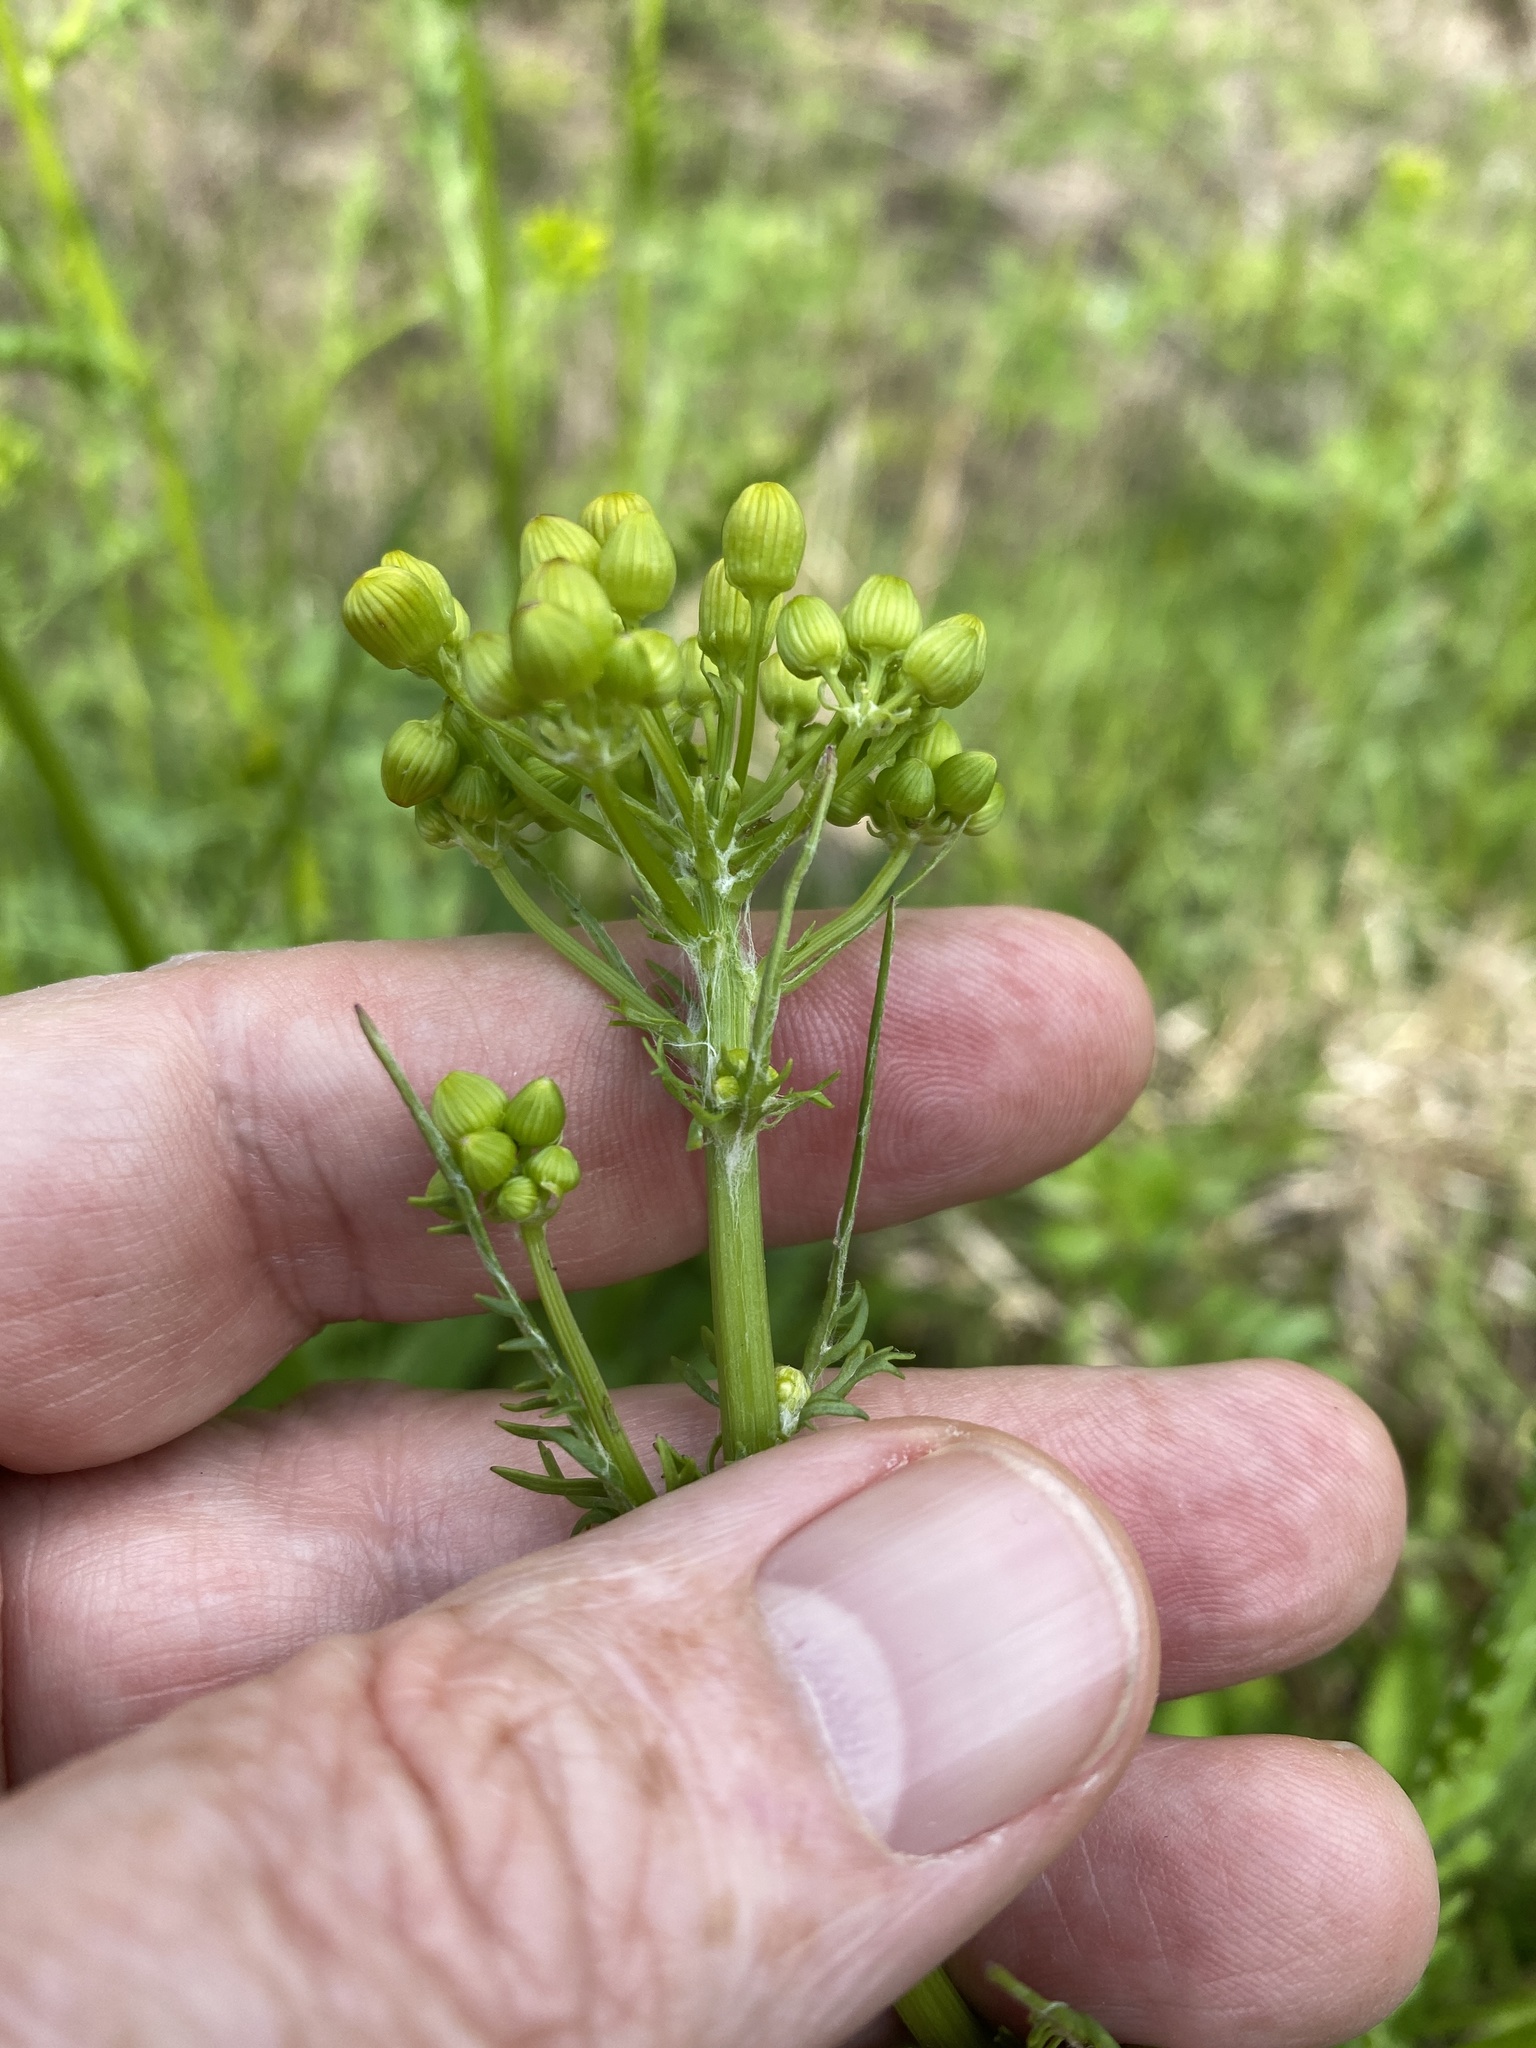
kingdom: Plantae
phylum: Tracheophyta
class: Magnoliopsida
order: Asterales
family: Asteraceae
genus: Packera
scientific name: Packera anonyma
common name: Small ragwort
